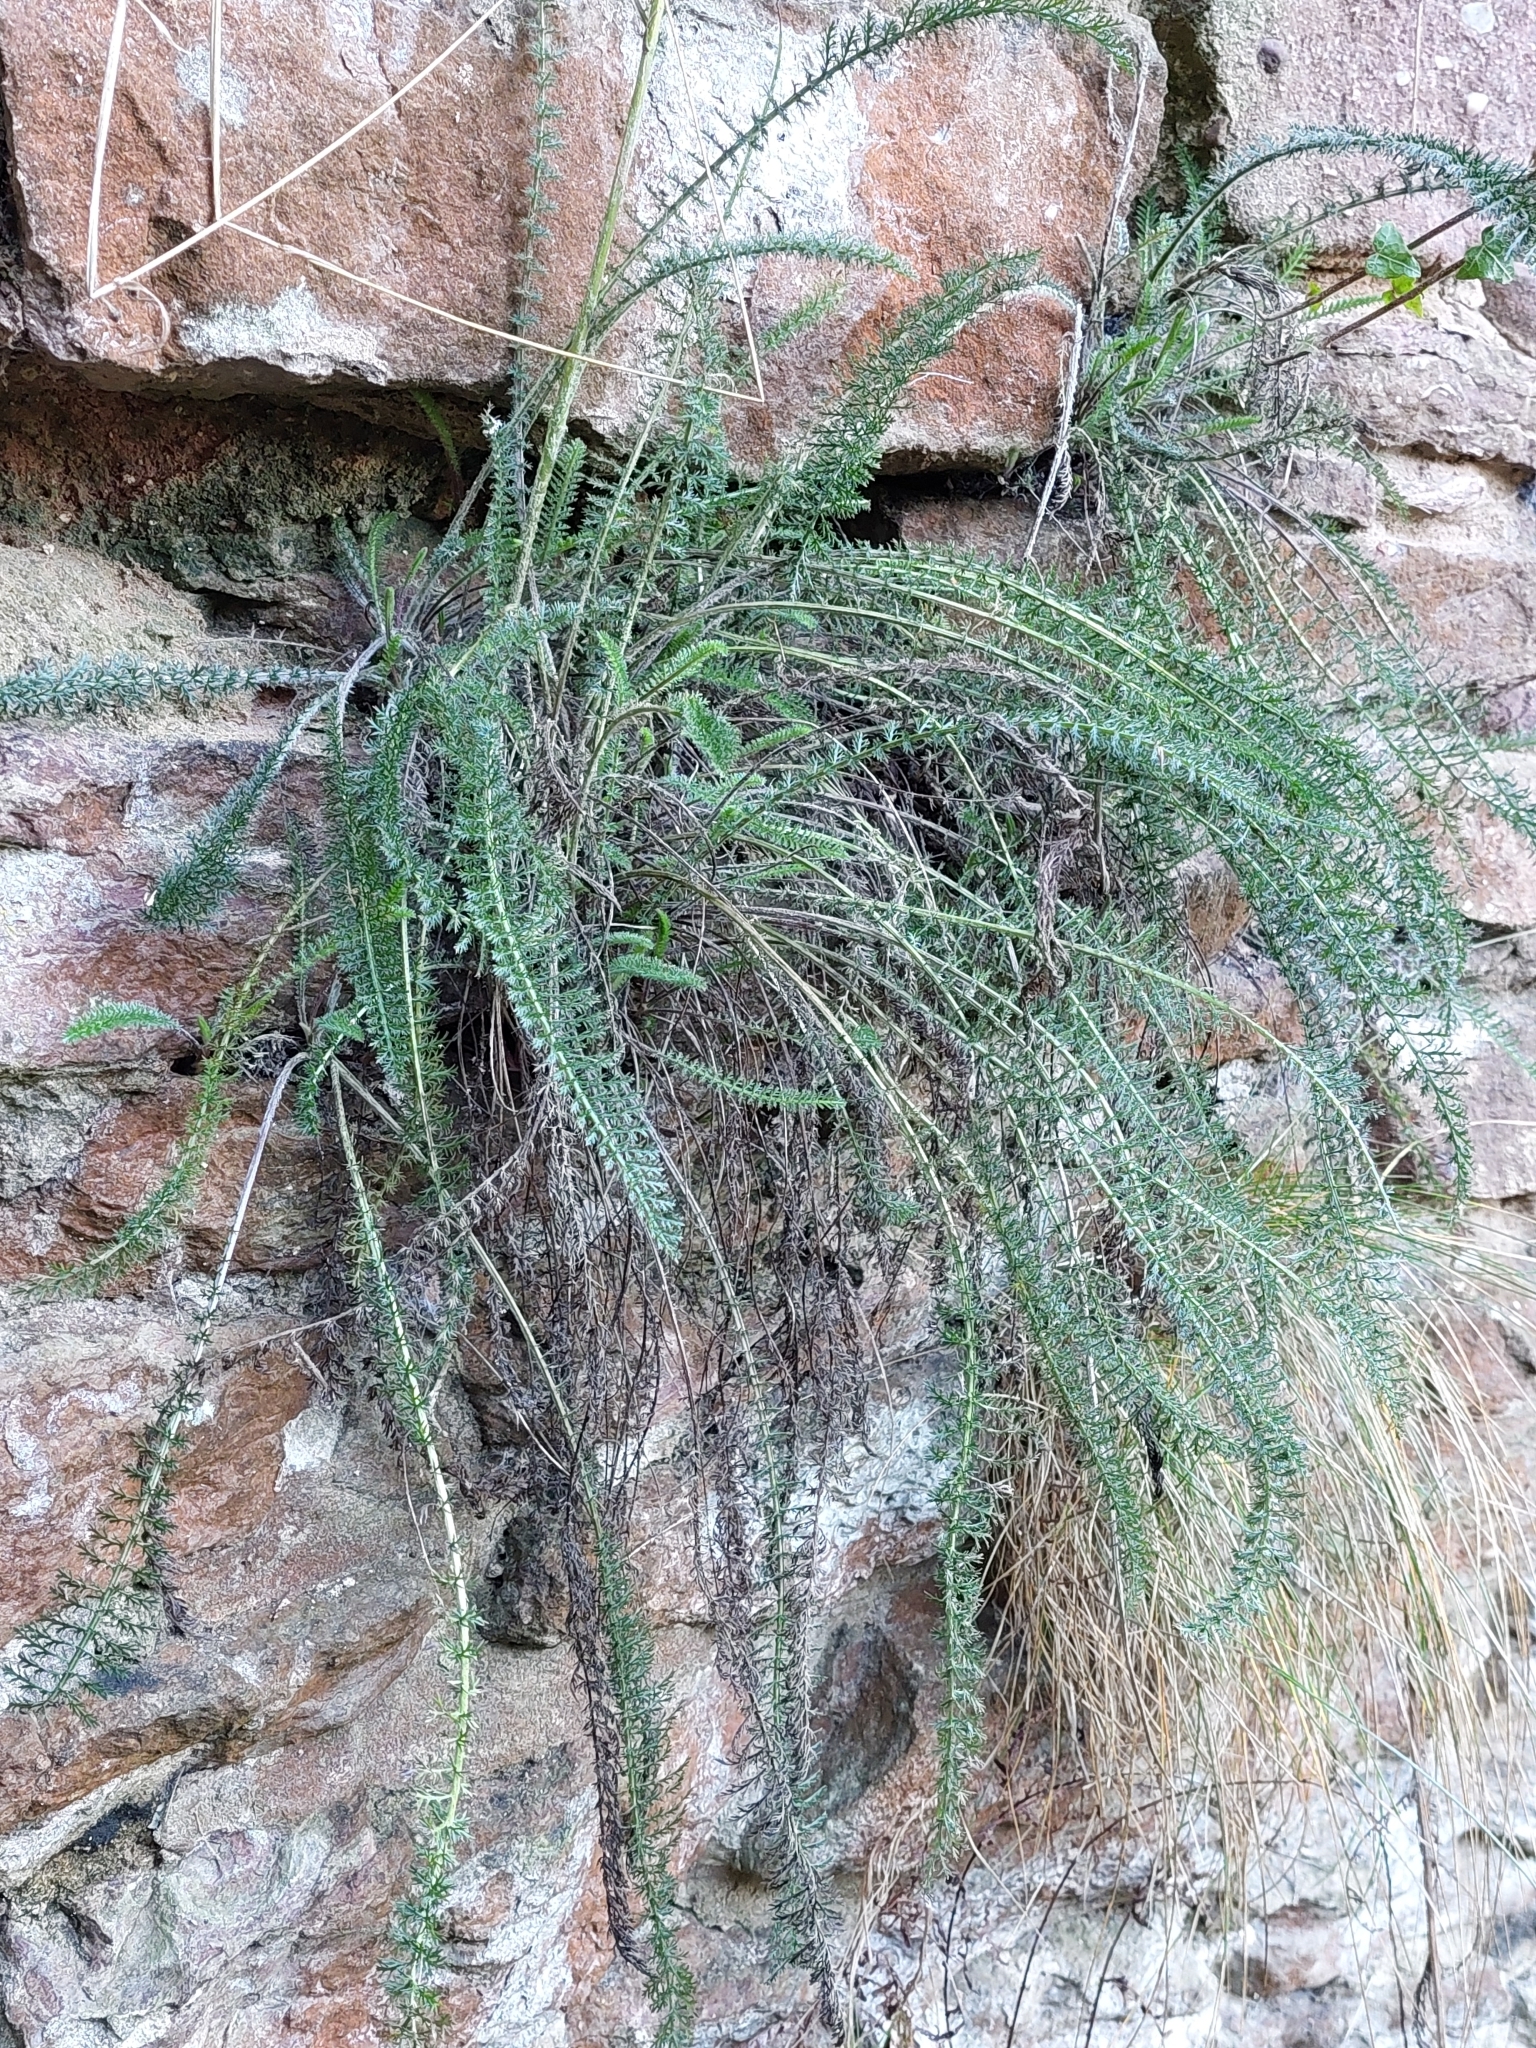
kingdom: Plantae
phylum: Tracheophyta
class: Magnoliopsida
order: Asterales
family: Asteraceae
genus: Achillea
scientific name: Achillea millefolium
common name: Yarrow
